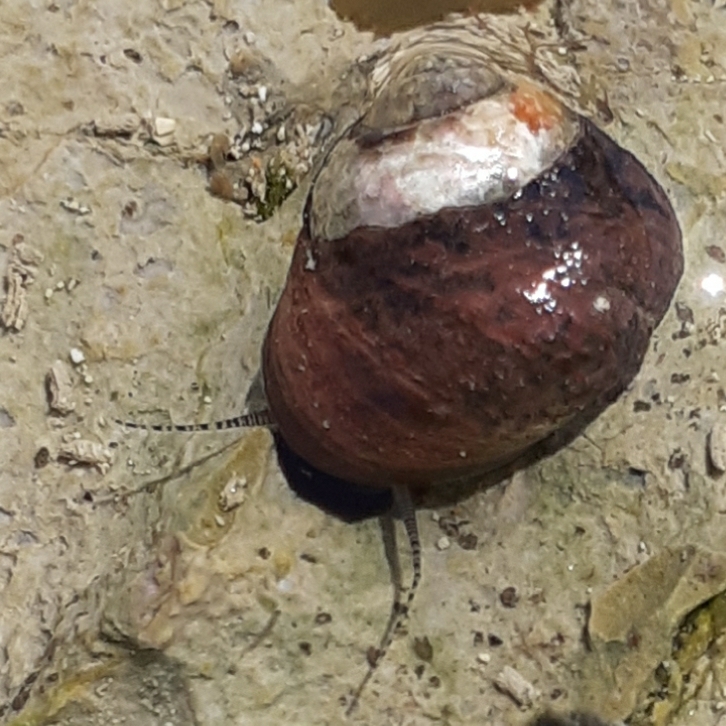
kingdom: Animalia
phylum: Mollusca
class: Gastropoda
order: Trochida
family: Trochidae
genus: Phorcus
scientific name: Phorcus lineatus
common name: Toothed top shell
